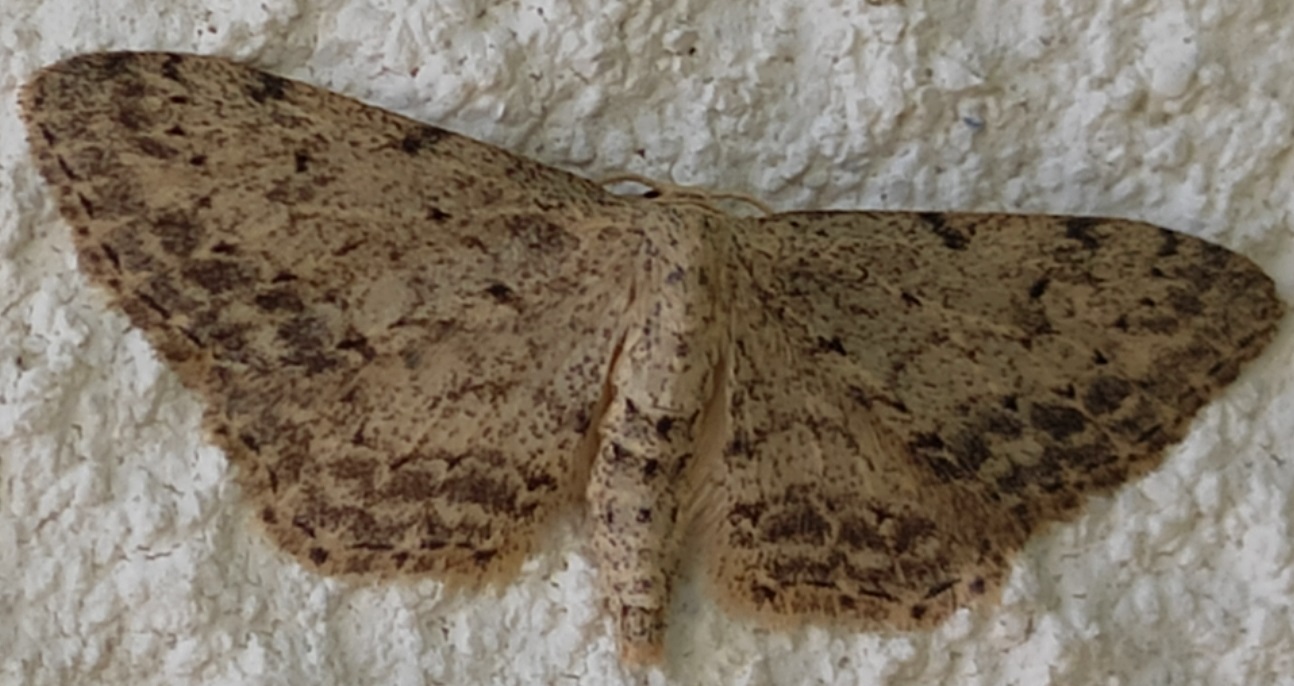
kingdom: Animalia
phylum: Arthropoda
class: Insecta
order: Lepidoptera
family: Geometridae
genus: Idaea
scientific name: Idaea incisaria
